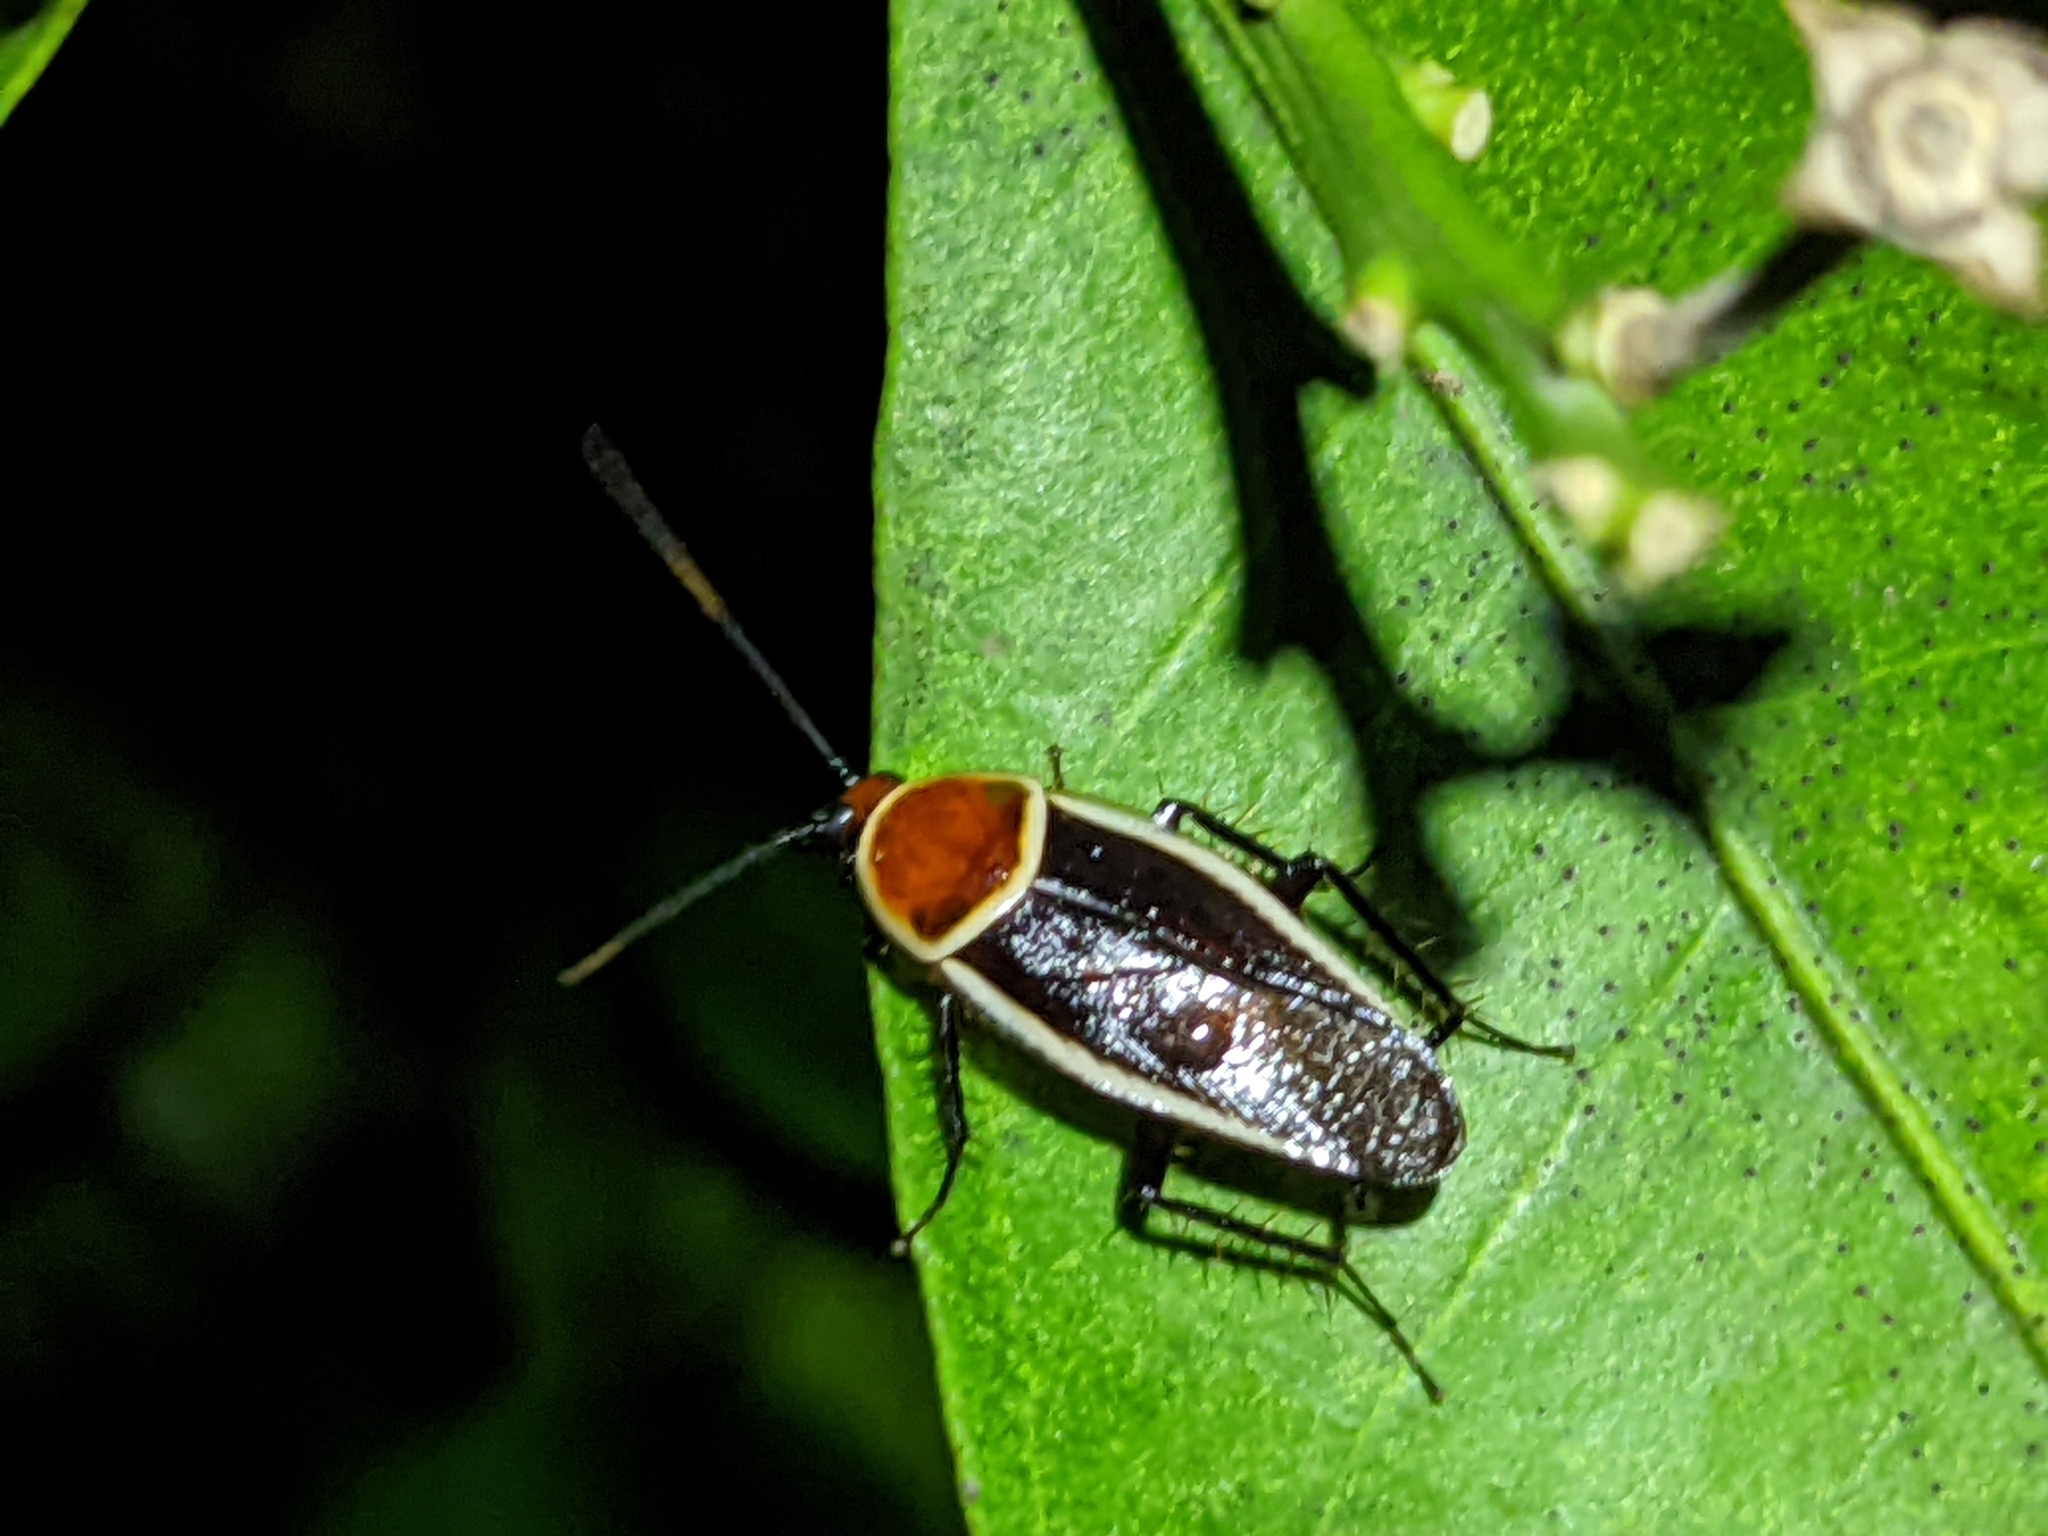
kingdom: Animalia
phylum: Arthropoda
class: Insecta
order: Blattodea
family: Ectobiidae
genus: Pseudomops
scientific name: Pseudomops septentrionalis
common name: Pale-bordered field cockroach
